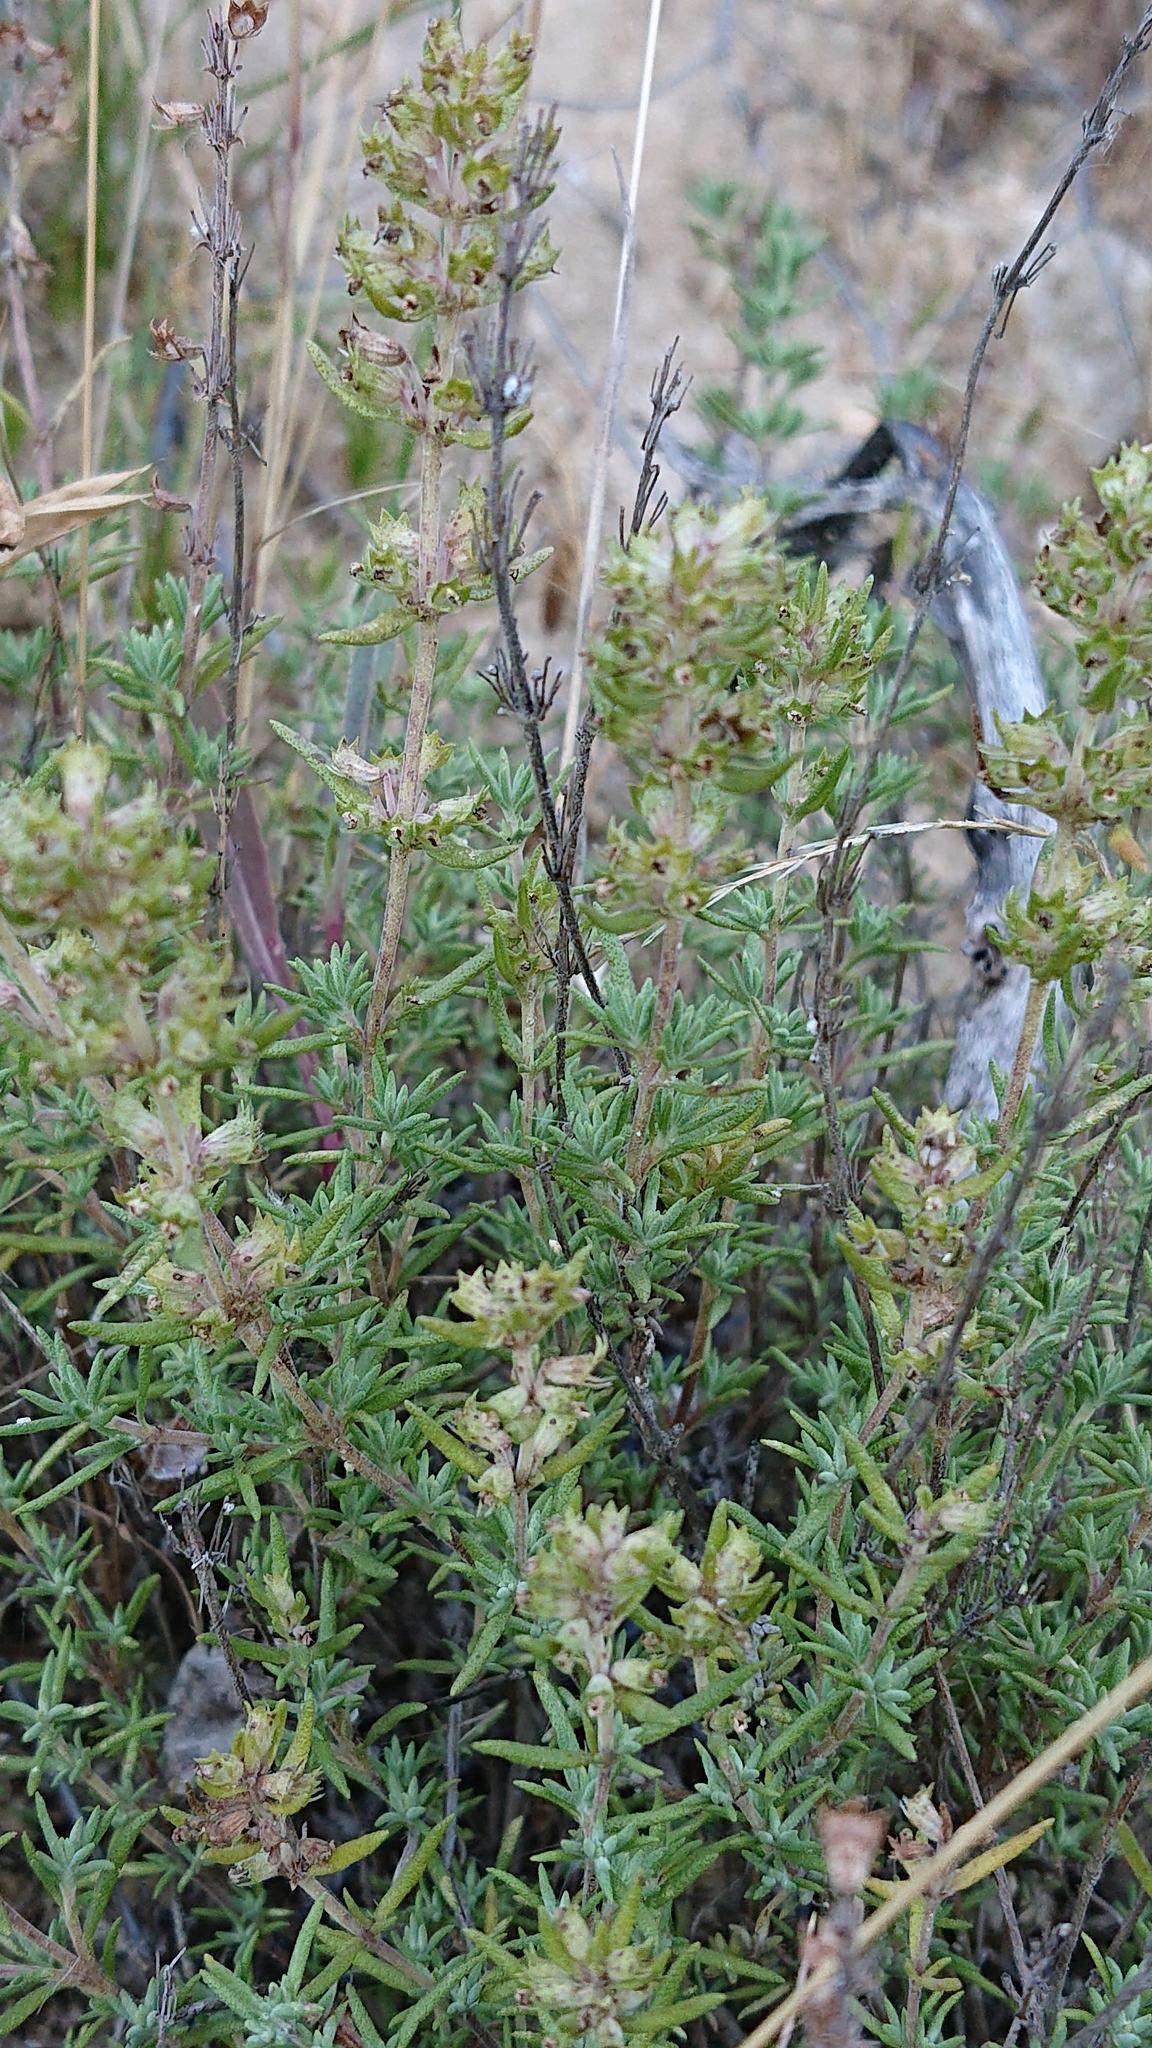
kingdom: Plantae
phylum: Tracheophyta
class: Magnoliopsida
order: Lamiales
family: Lamiaceae
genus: Thymus
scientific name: Thymus zygis
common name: White thyme
